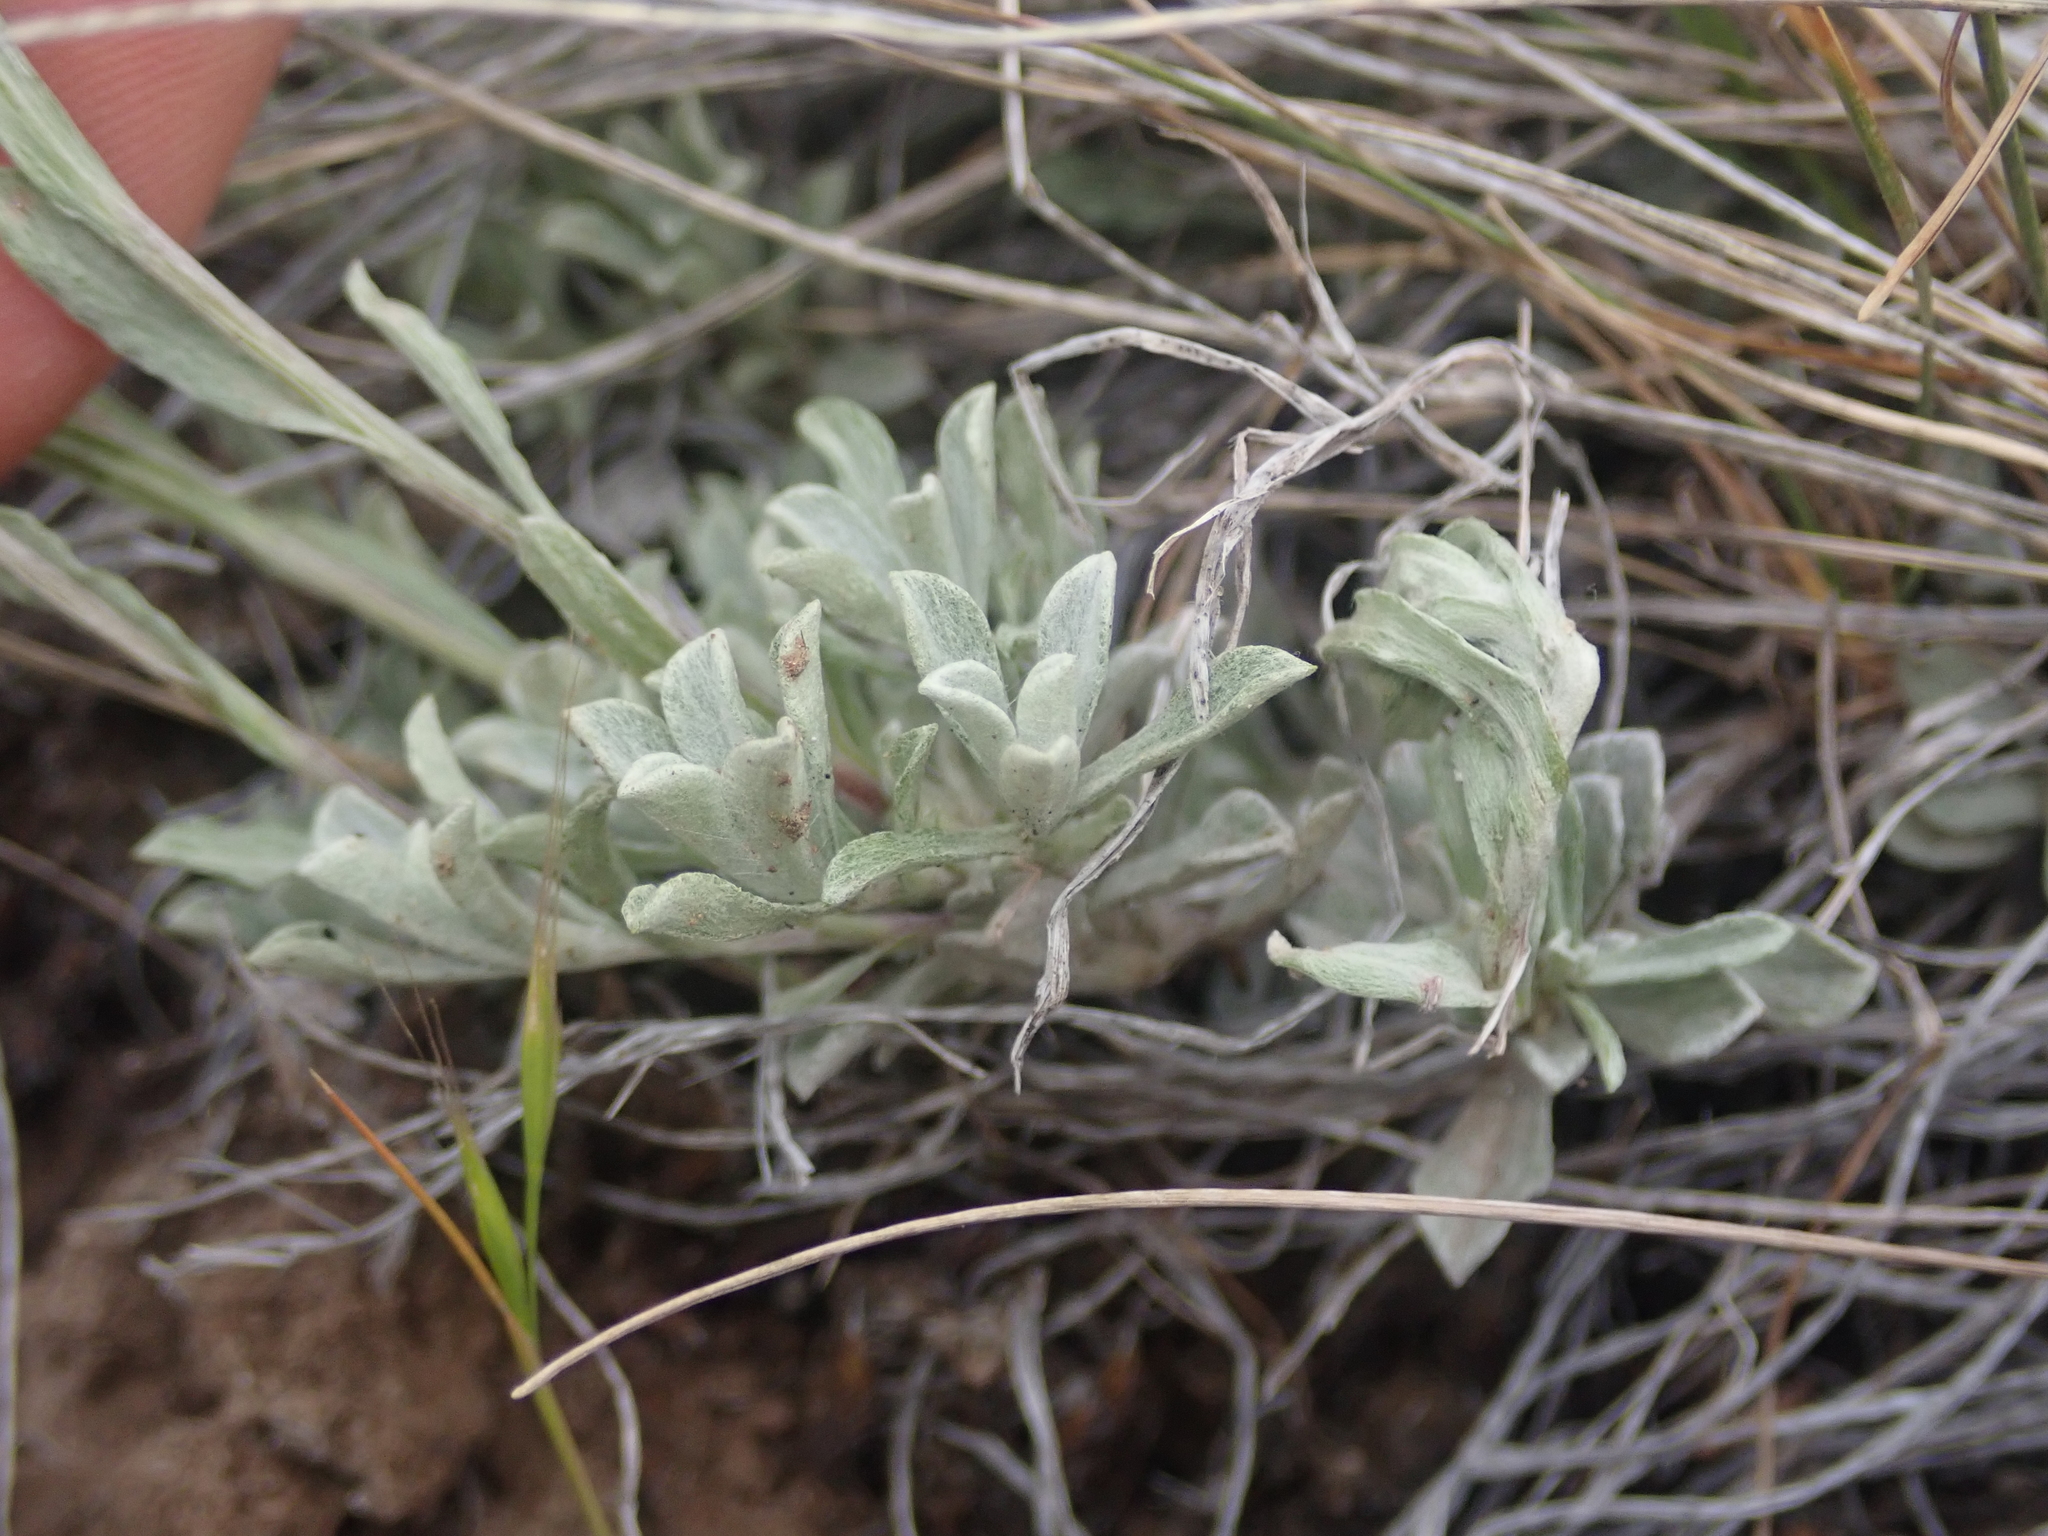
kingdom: Plantae
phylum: Tracheophyta
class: Magnoliopsida
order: Asterales
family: Asteraceae
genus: Antennaria
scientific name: Antennaria rosea
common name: Rosy pussytoes
